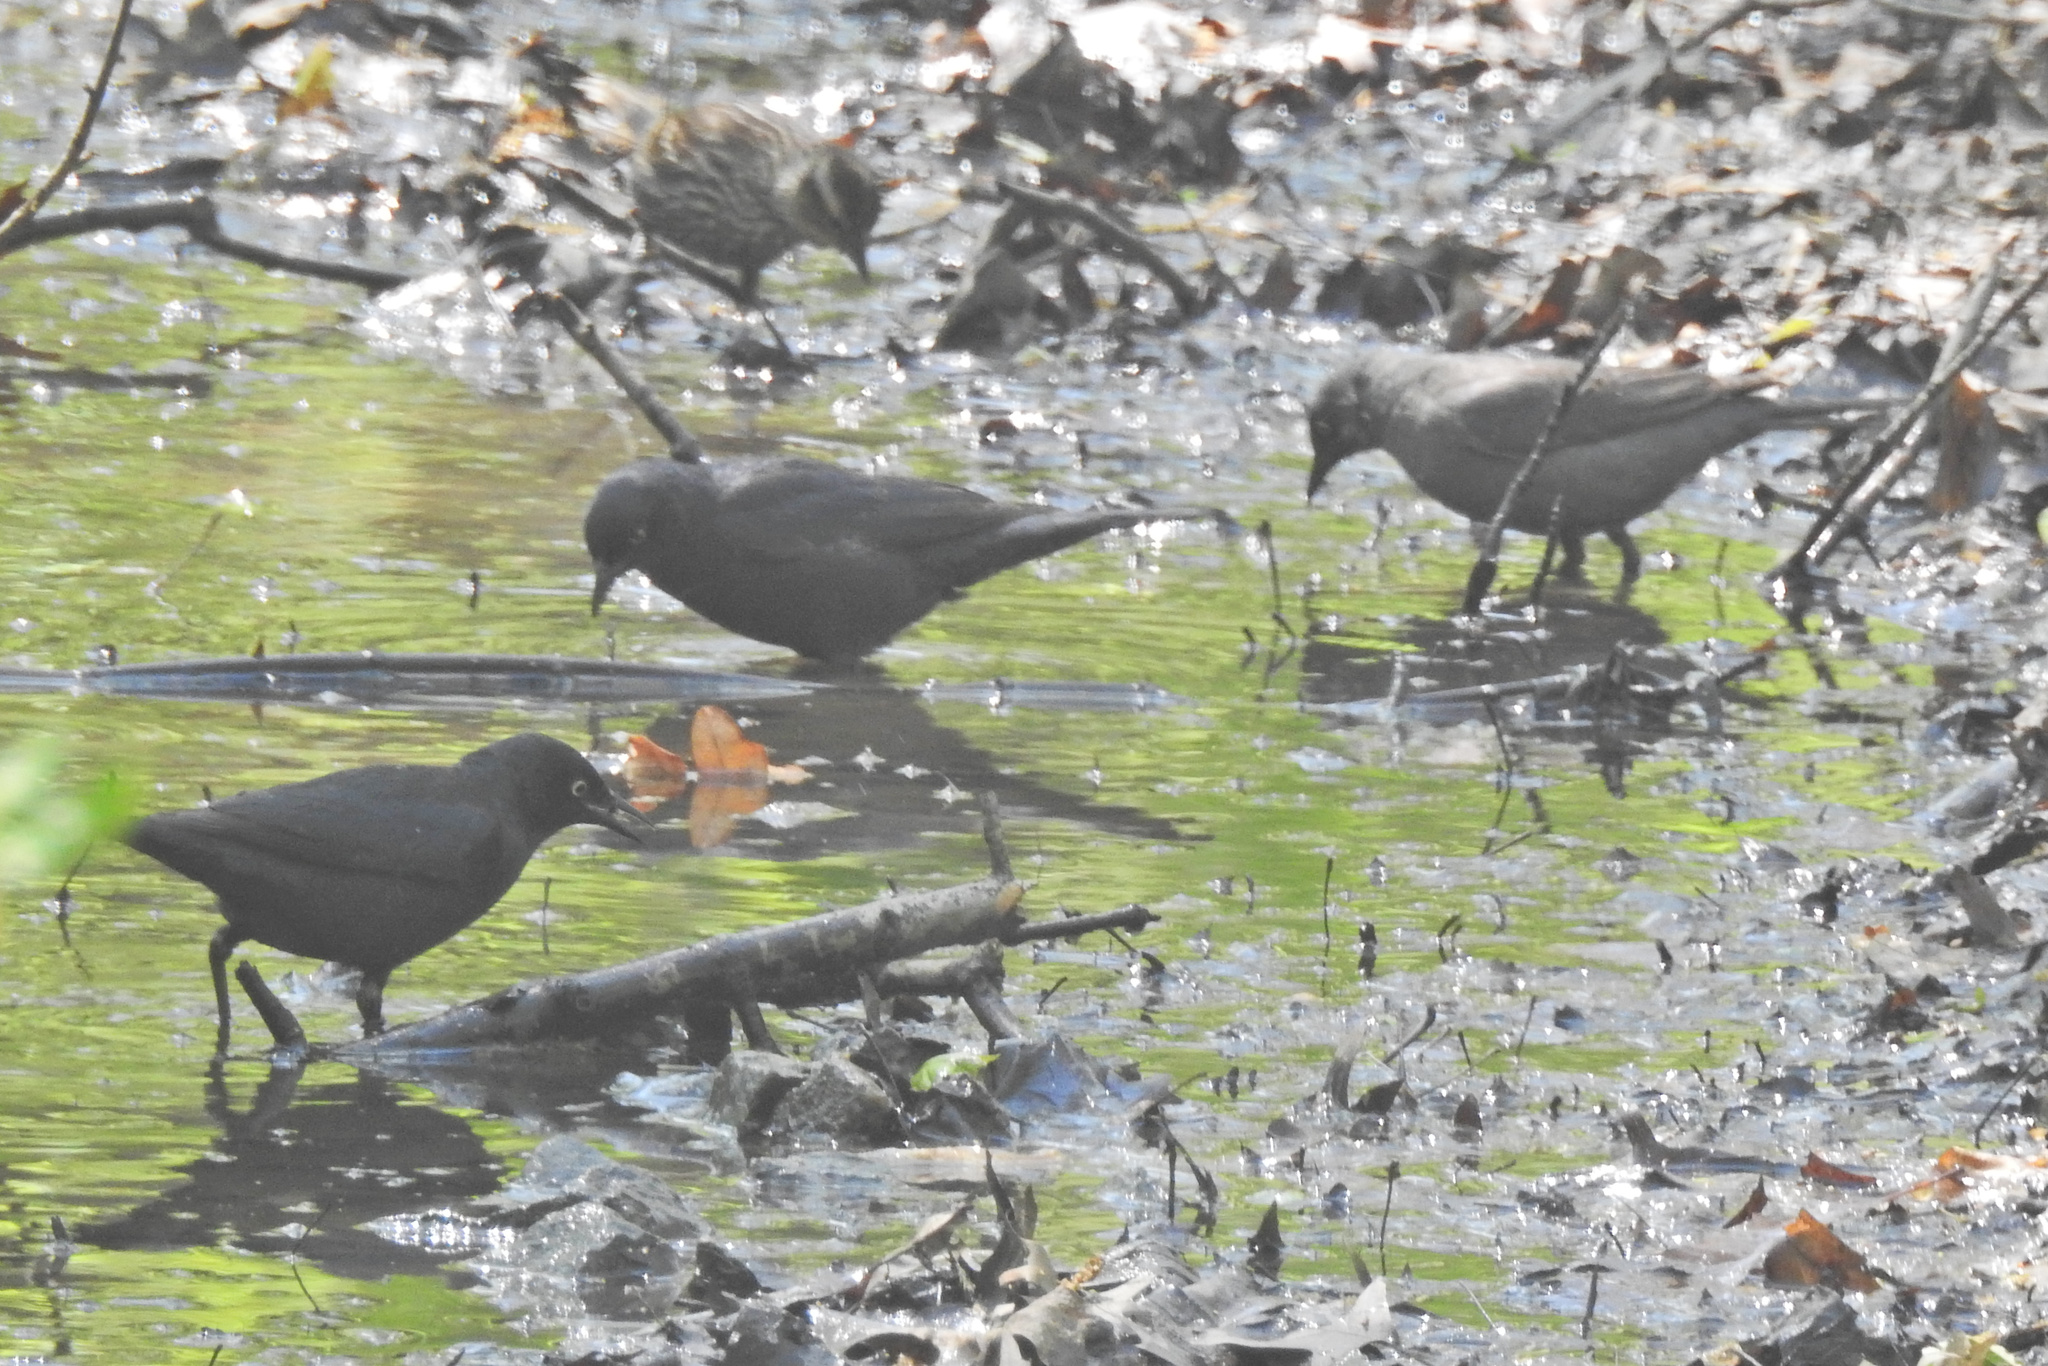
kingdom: Animalia
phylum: Chordata
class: Aves
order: Passeriformes
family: Icteridae
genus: Euphagus
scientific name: Euphagus carolinus
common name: Rusty blackbird
